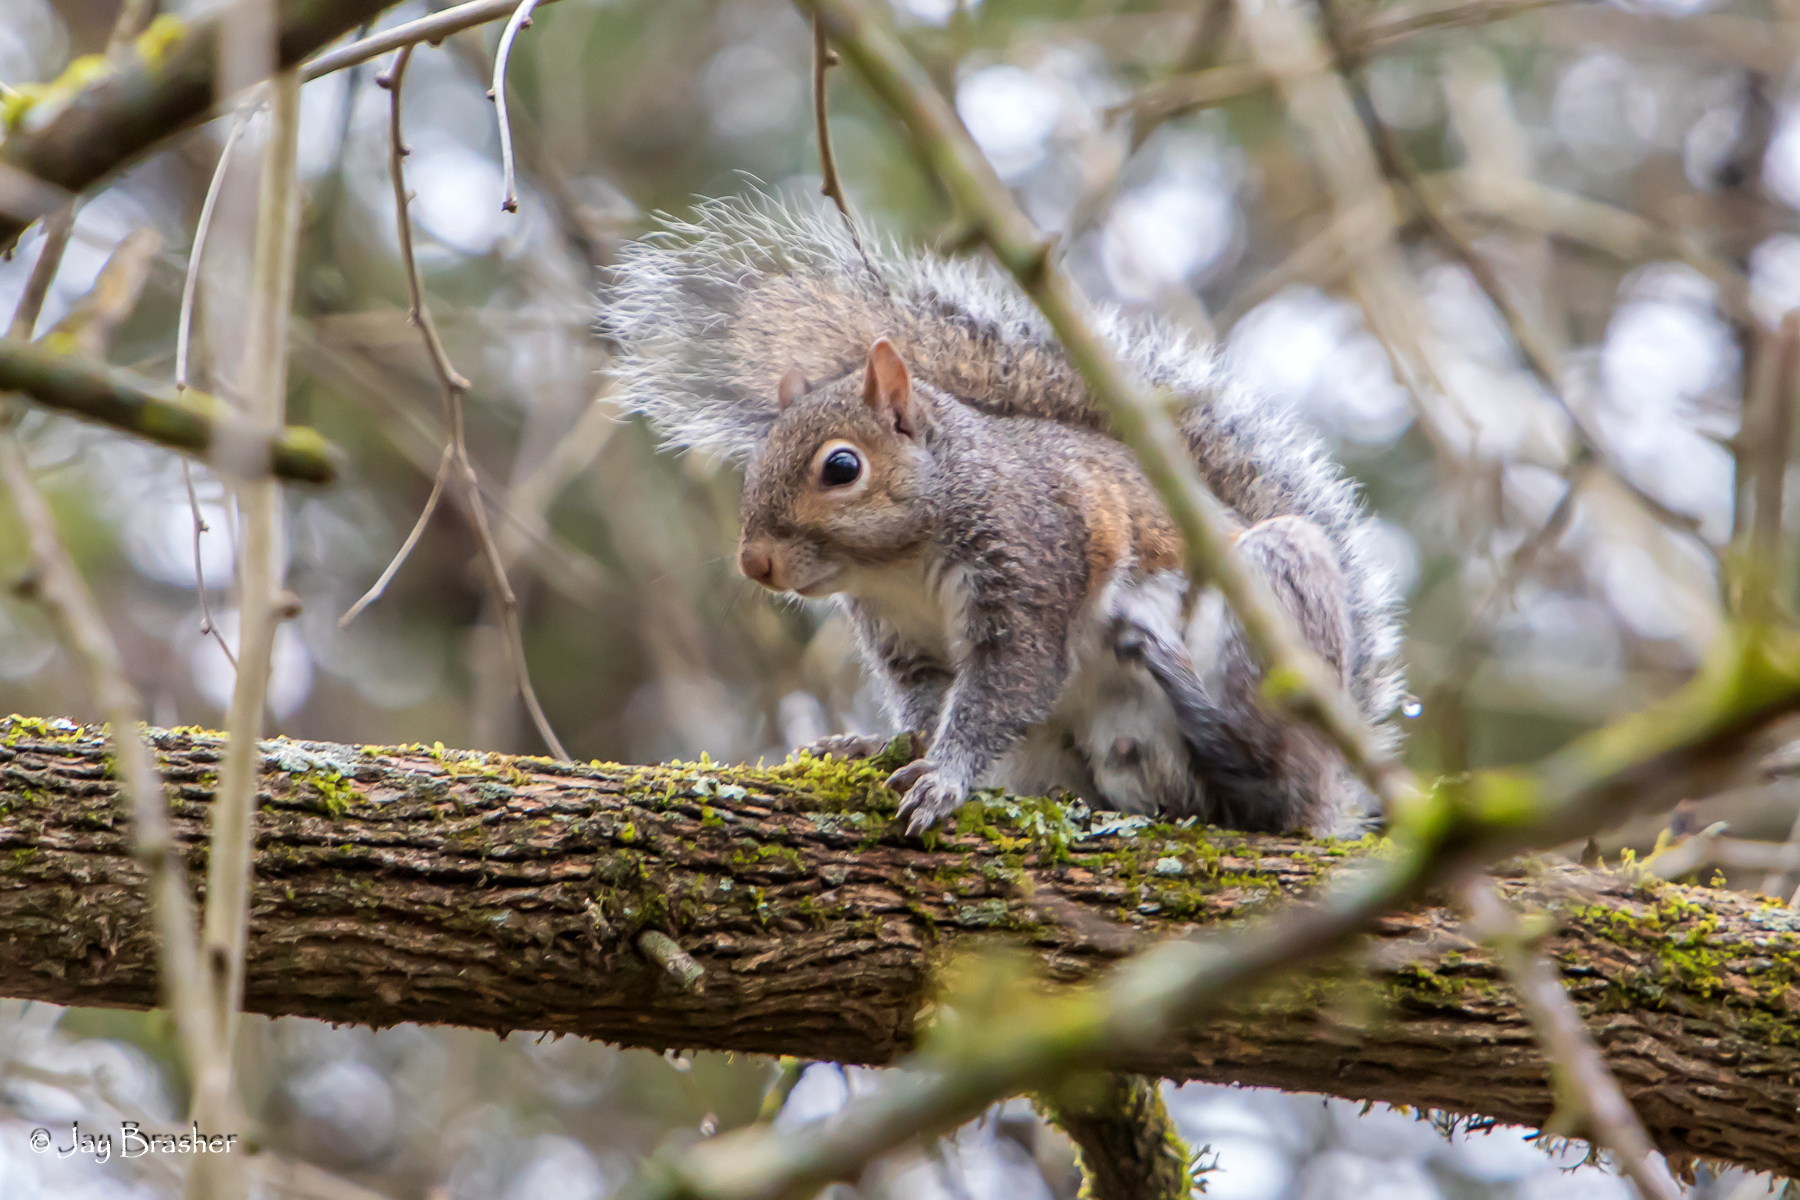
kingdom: Animalia
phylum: Chordata
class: Mammalia
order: Rodentia
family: Sciuridae
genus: Sciurus
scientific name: Sciurus carolinensis
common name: Eastern gray squirrel
